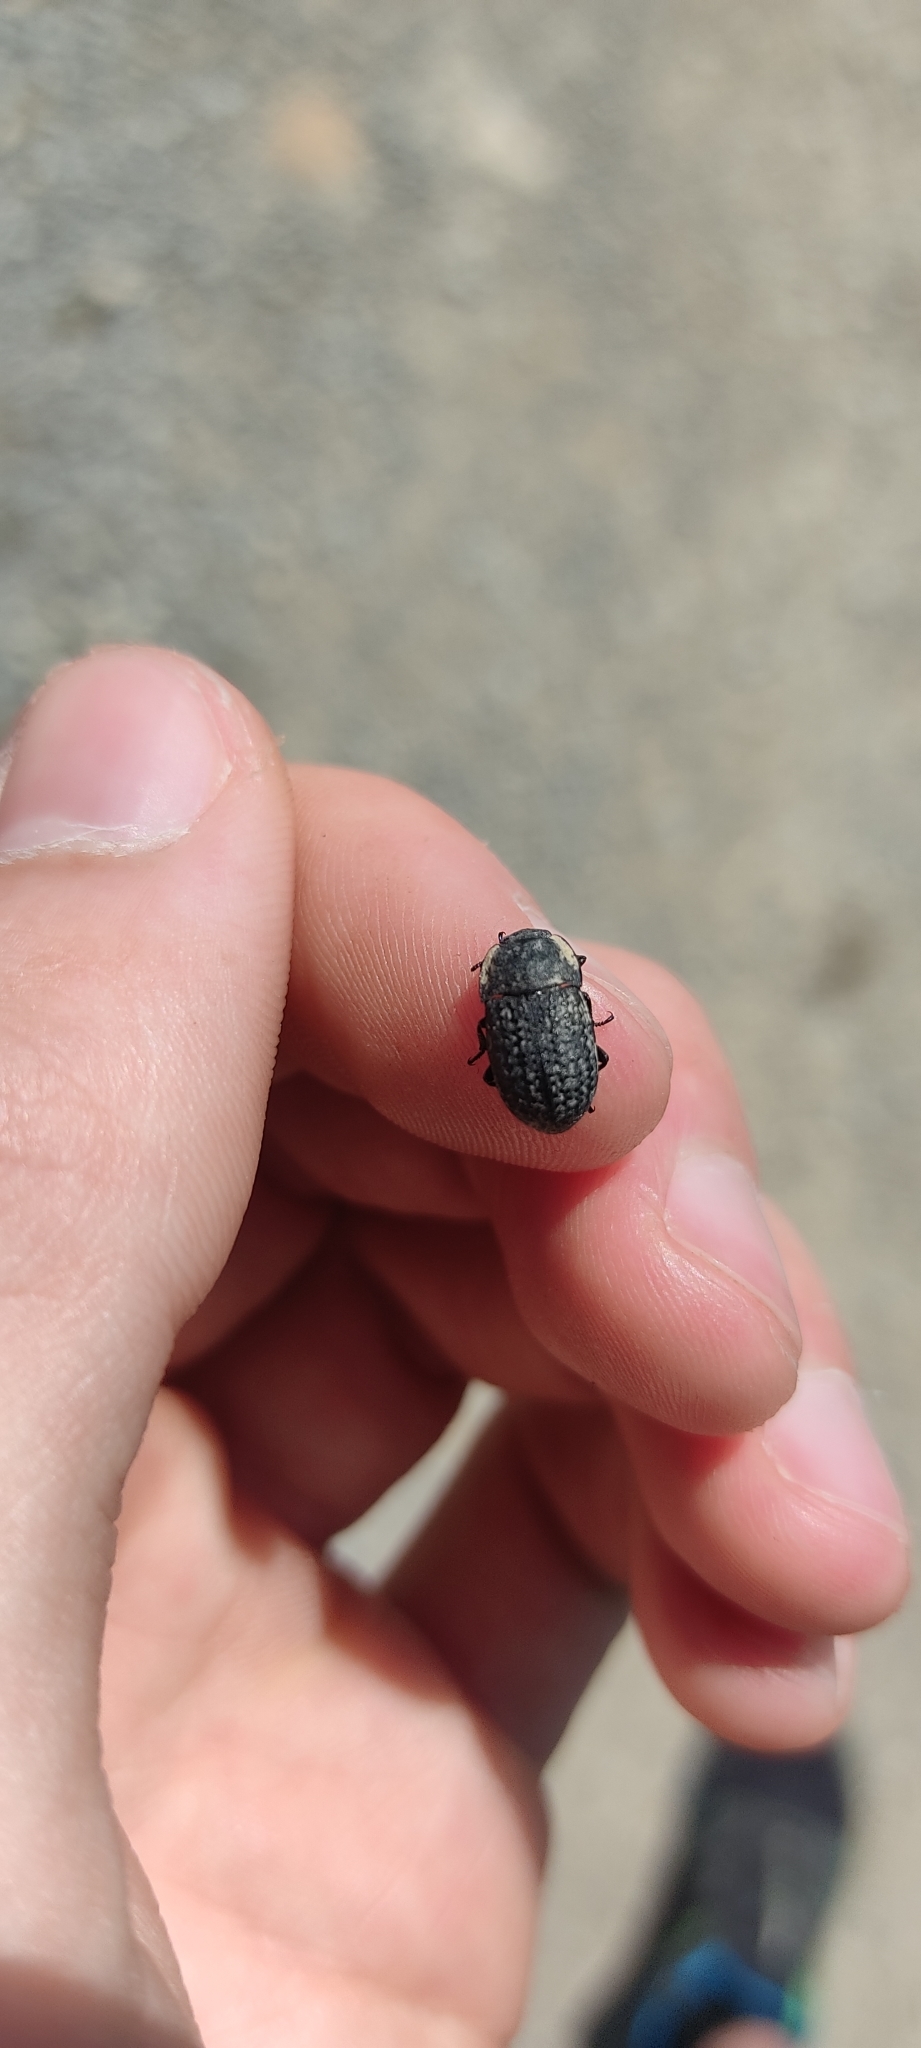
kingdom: Animalia
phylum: Arthropoda
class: Insecta
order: Coleoptera
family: Tenebrionidae
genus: Opatrum
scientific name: Opatrum sabulosum
